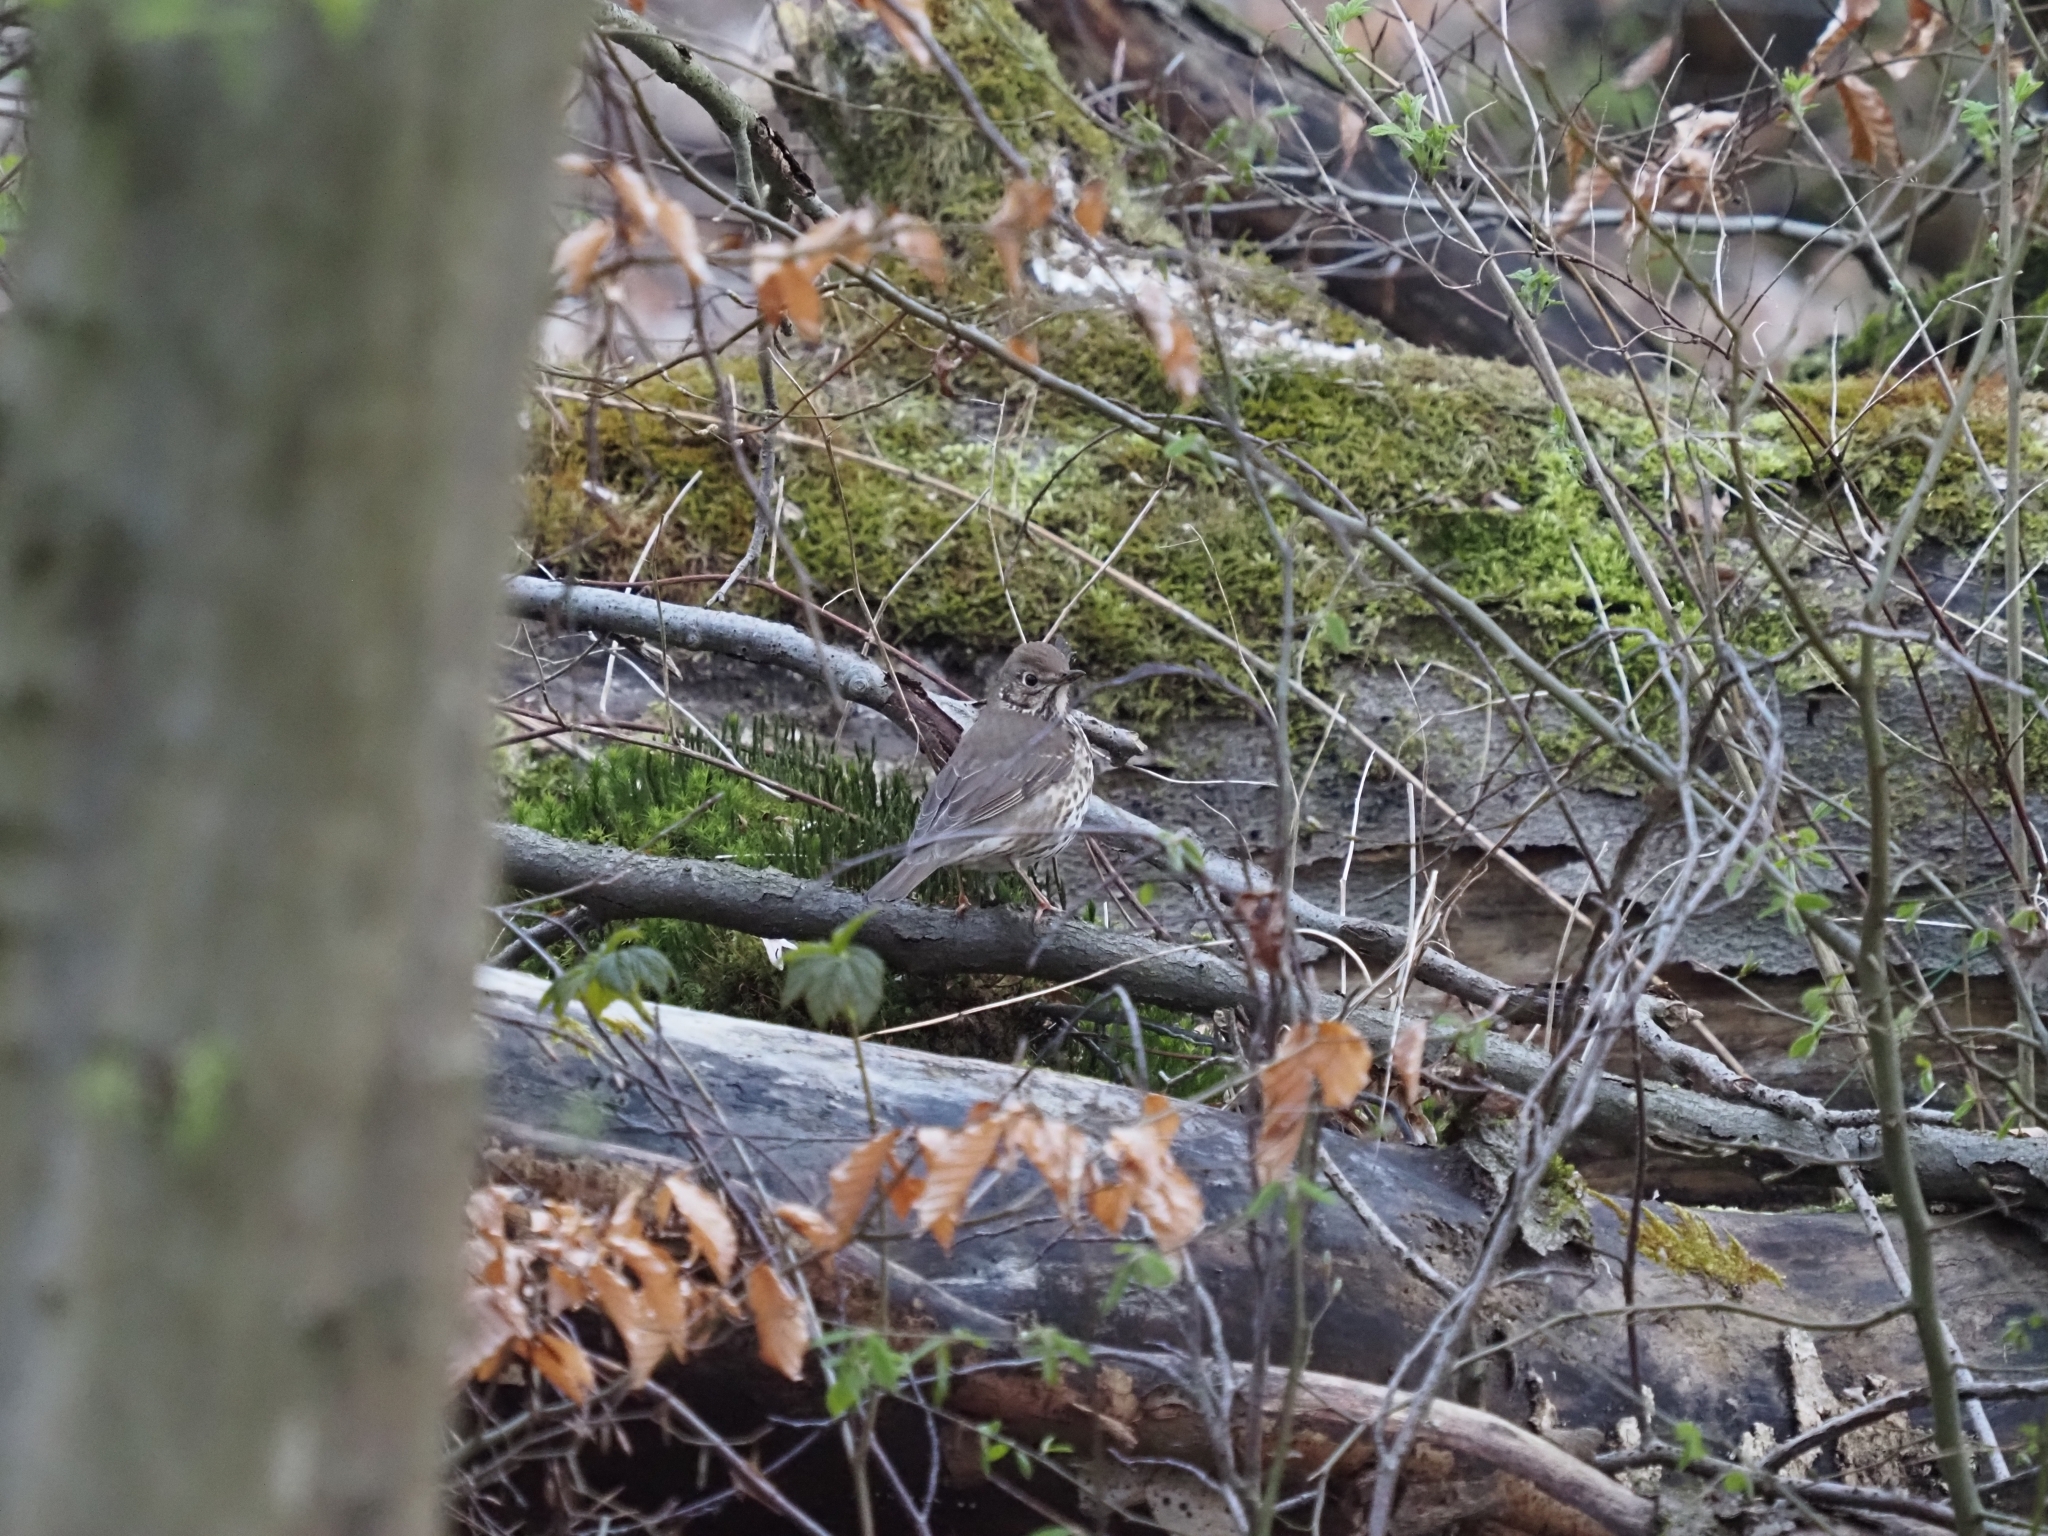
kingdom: Animalia
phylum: Chordata
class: Aves
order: Passeriformes
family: Turdidae
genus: Turdus
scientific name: Turdus philomelos
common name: Song thrush
